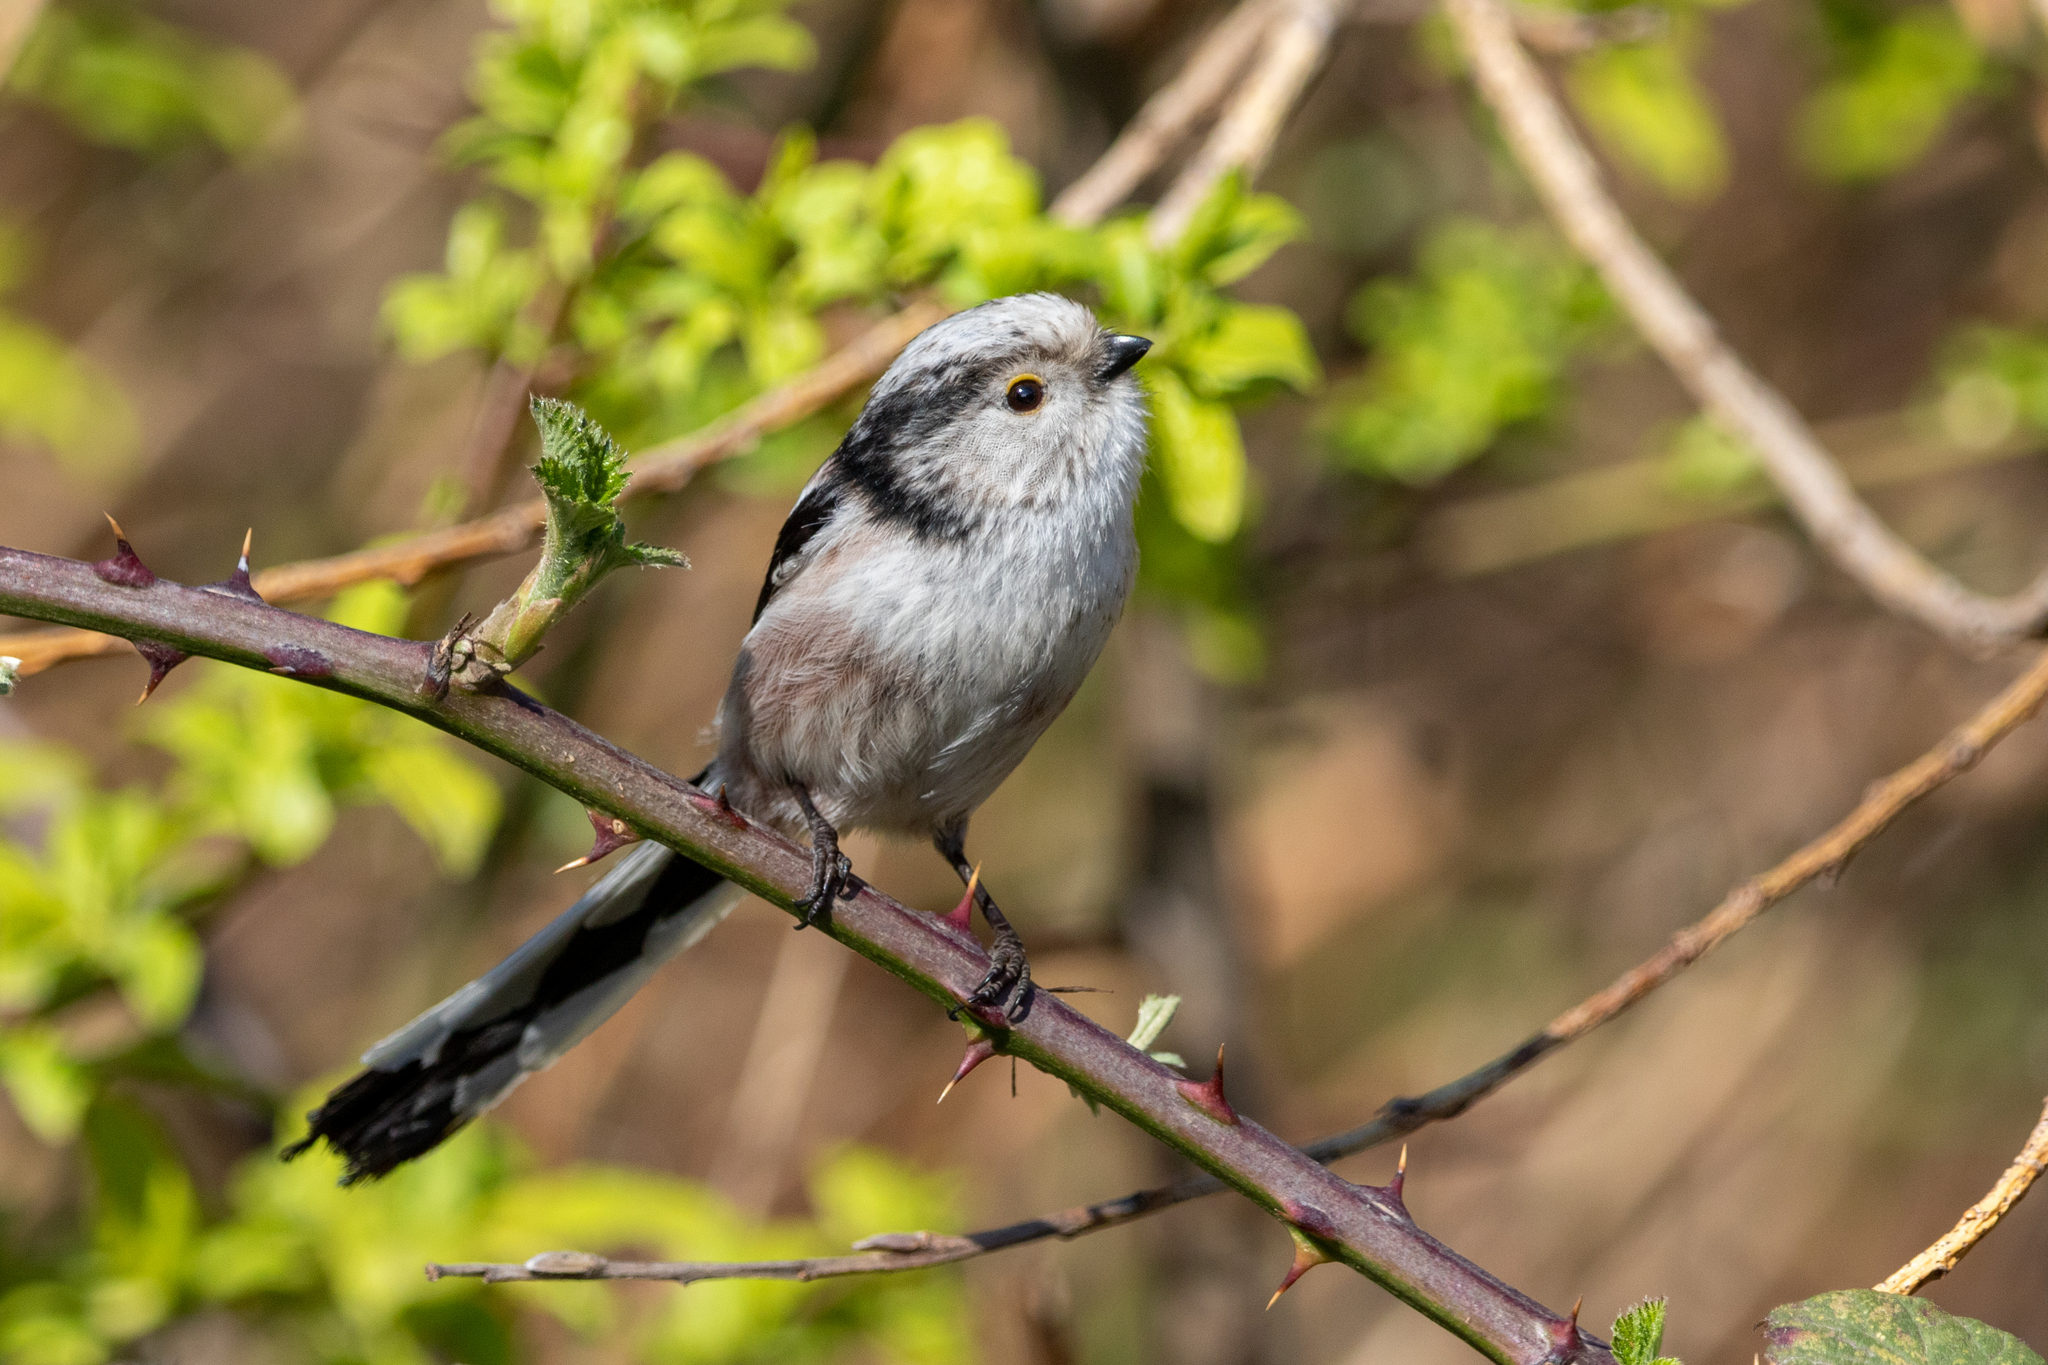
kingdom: Animalia
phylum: Chordata
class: Aves
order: Passeriformes
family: Aegithalidae
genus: Aegithalos
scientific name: Aegithalos caudatus
